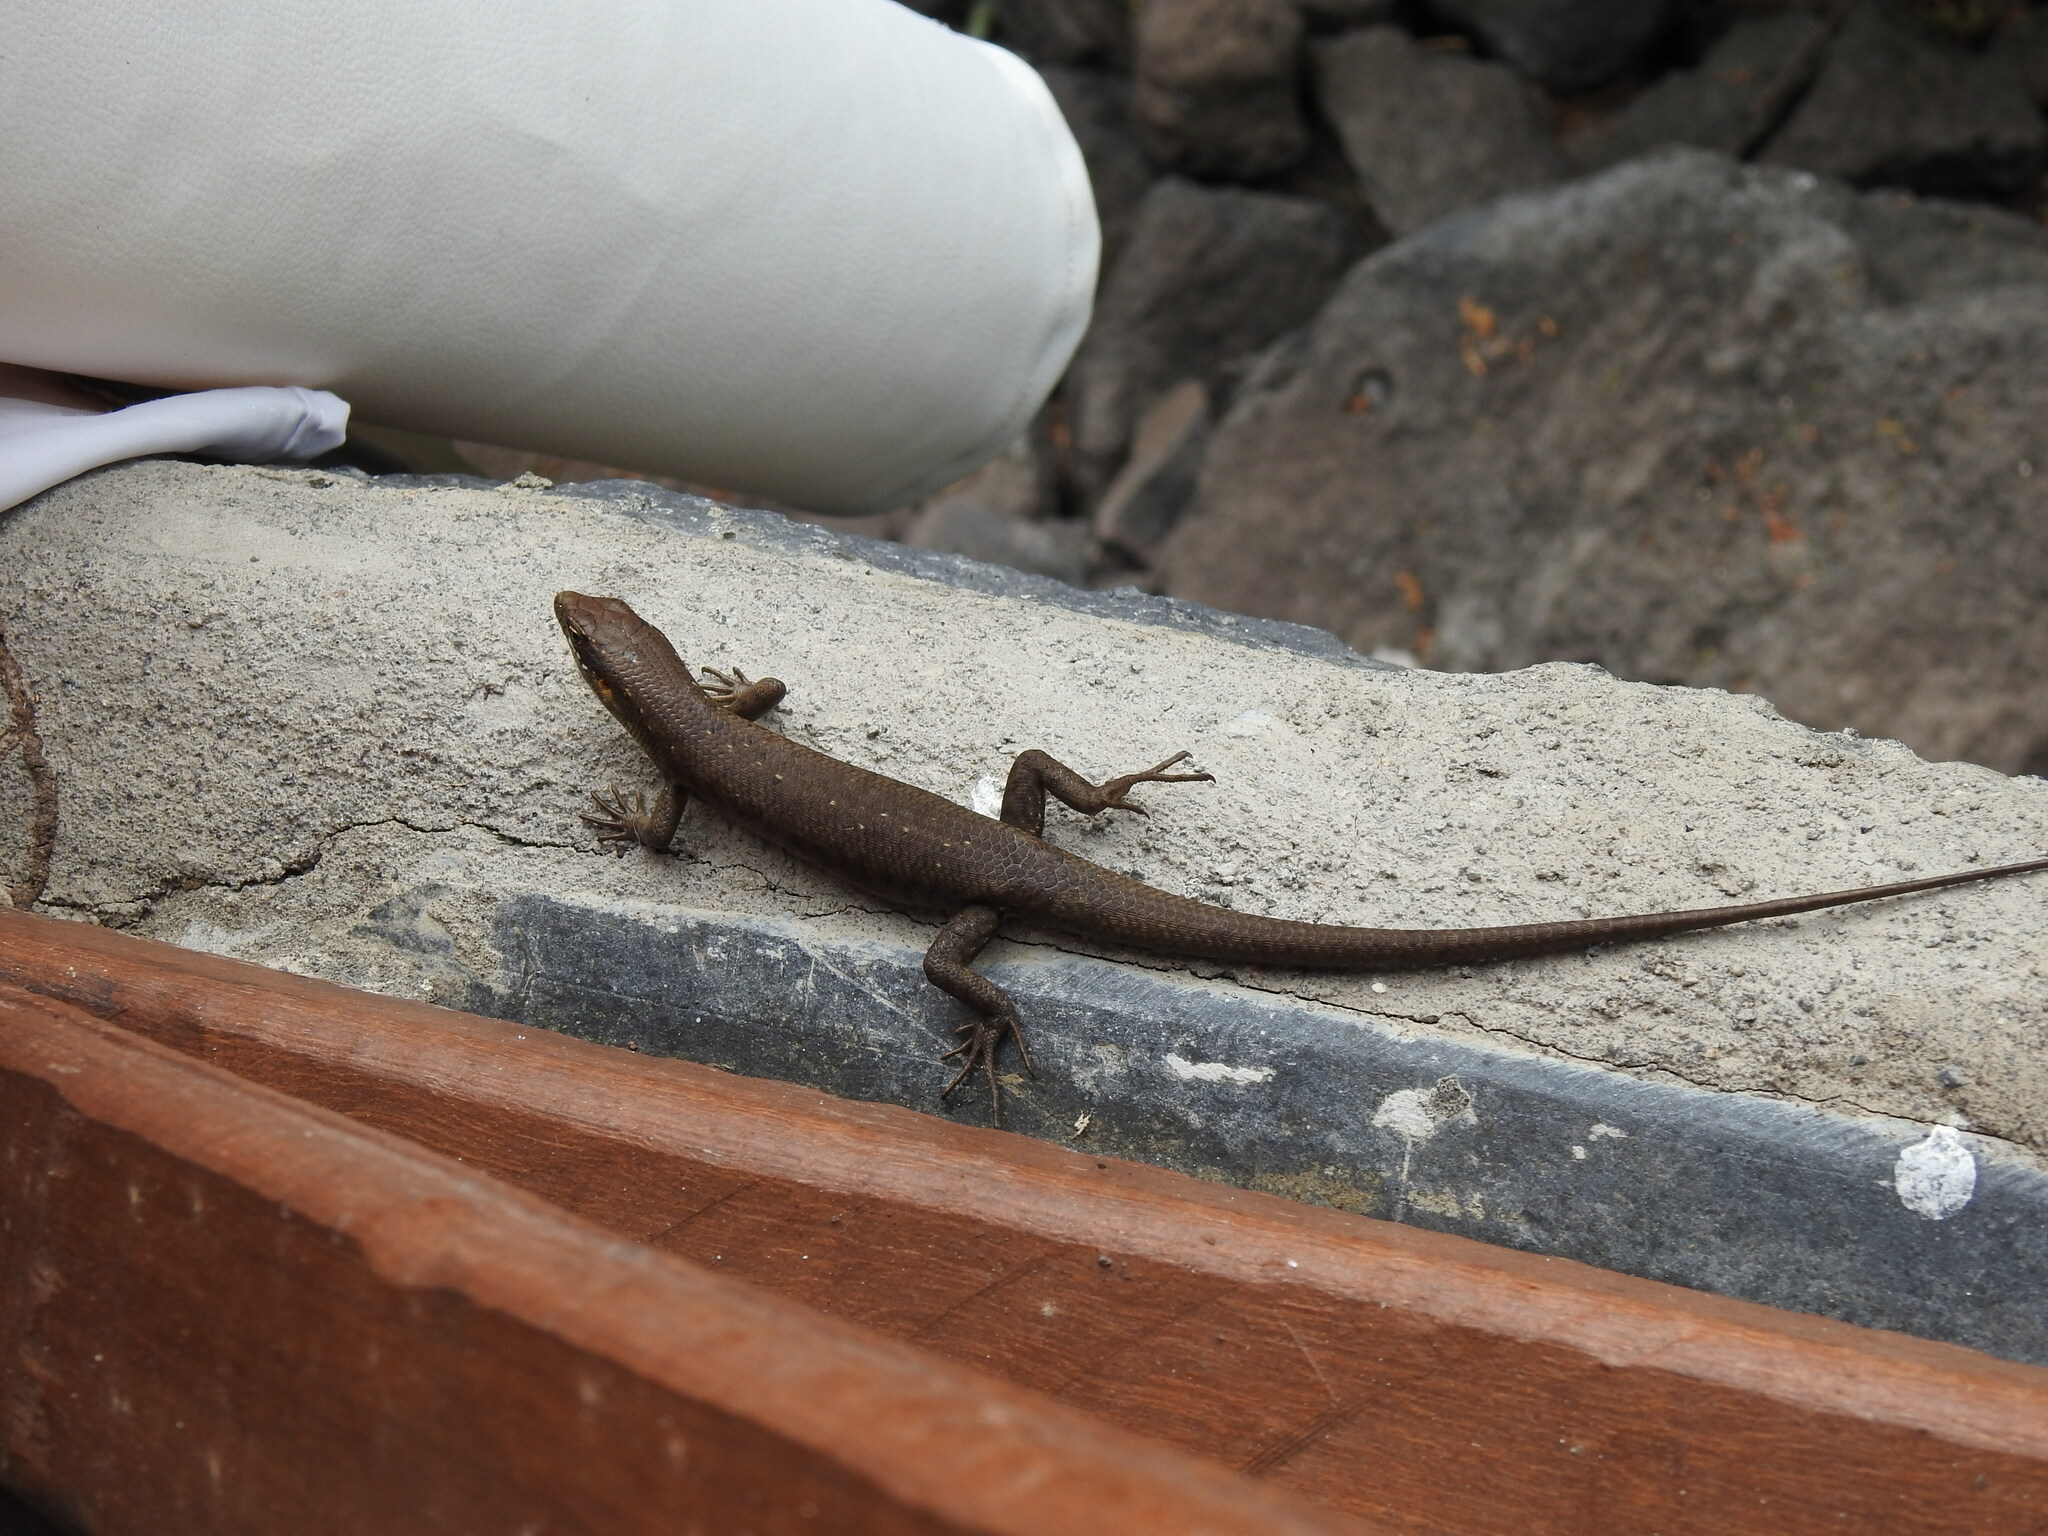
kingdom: Animalia
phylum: Chordata
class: Squamata
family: Scincidae
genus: Trachylepis
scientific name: Trachylepis thomensis
